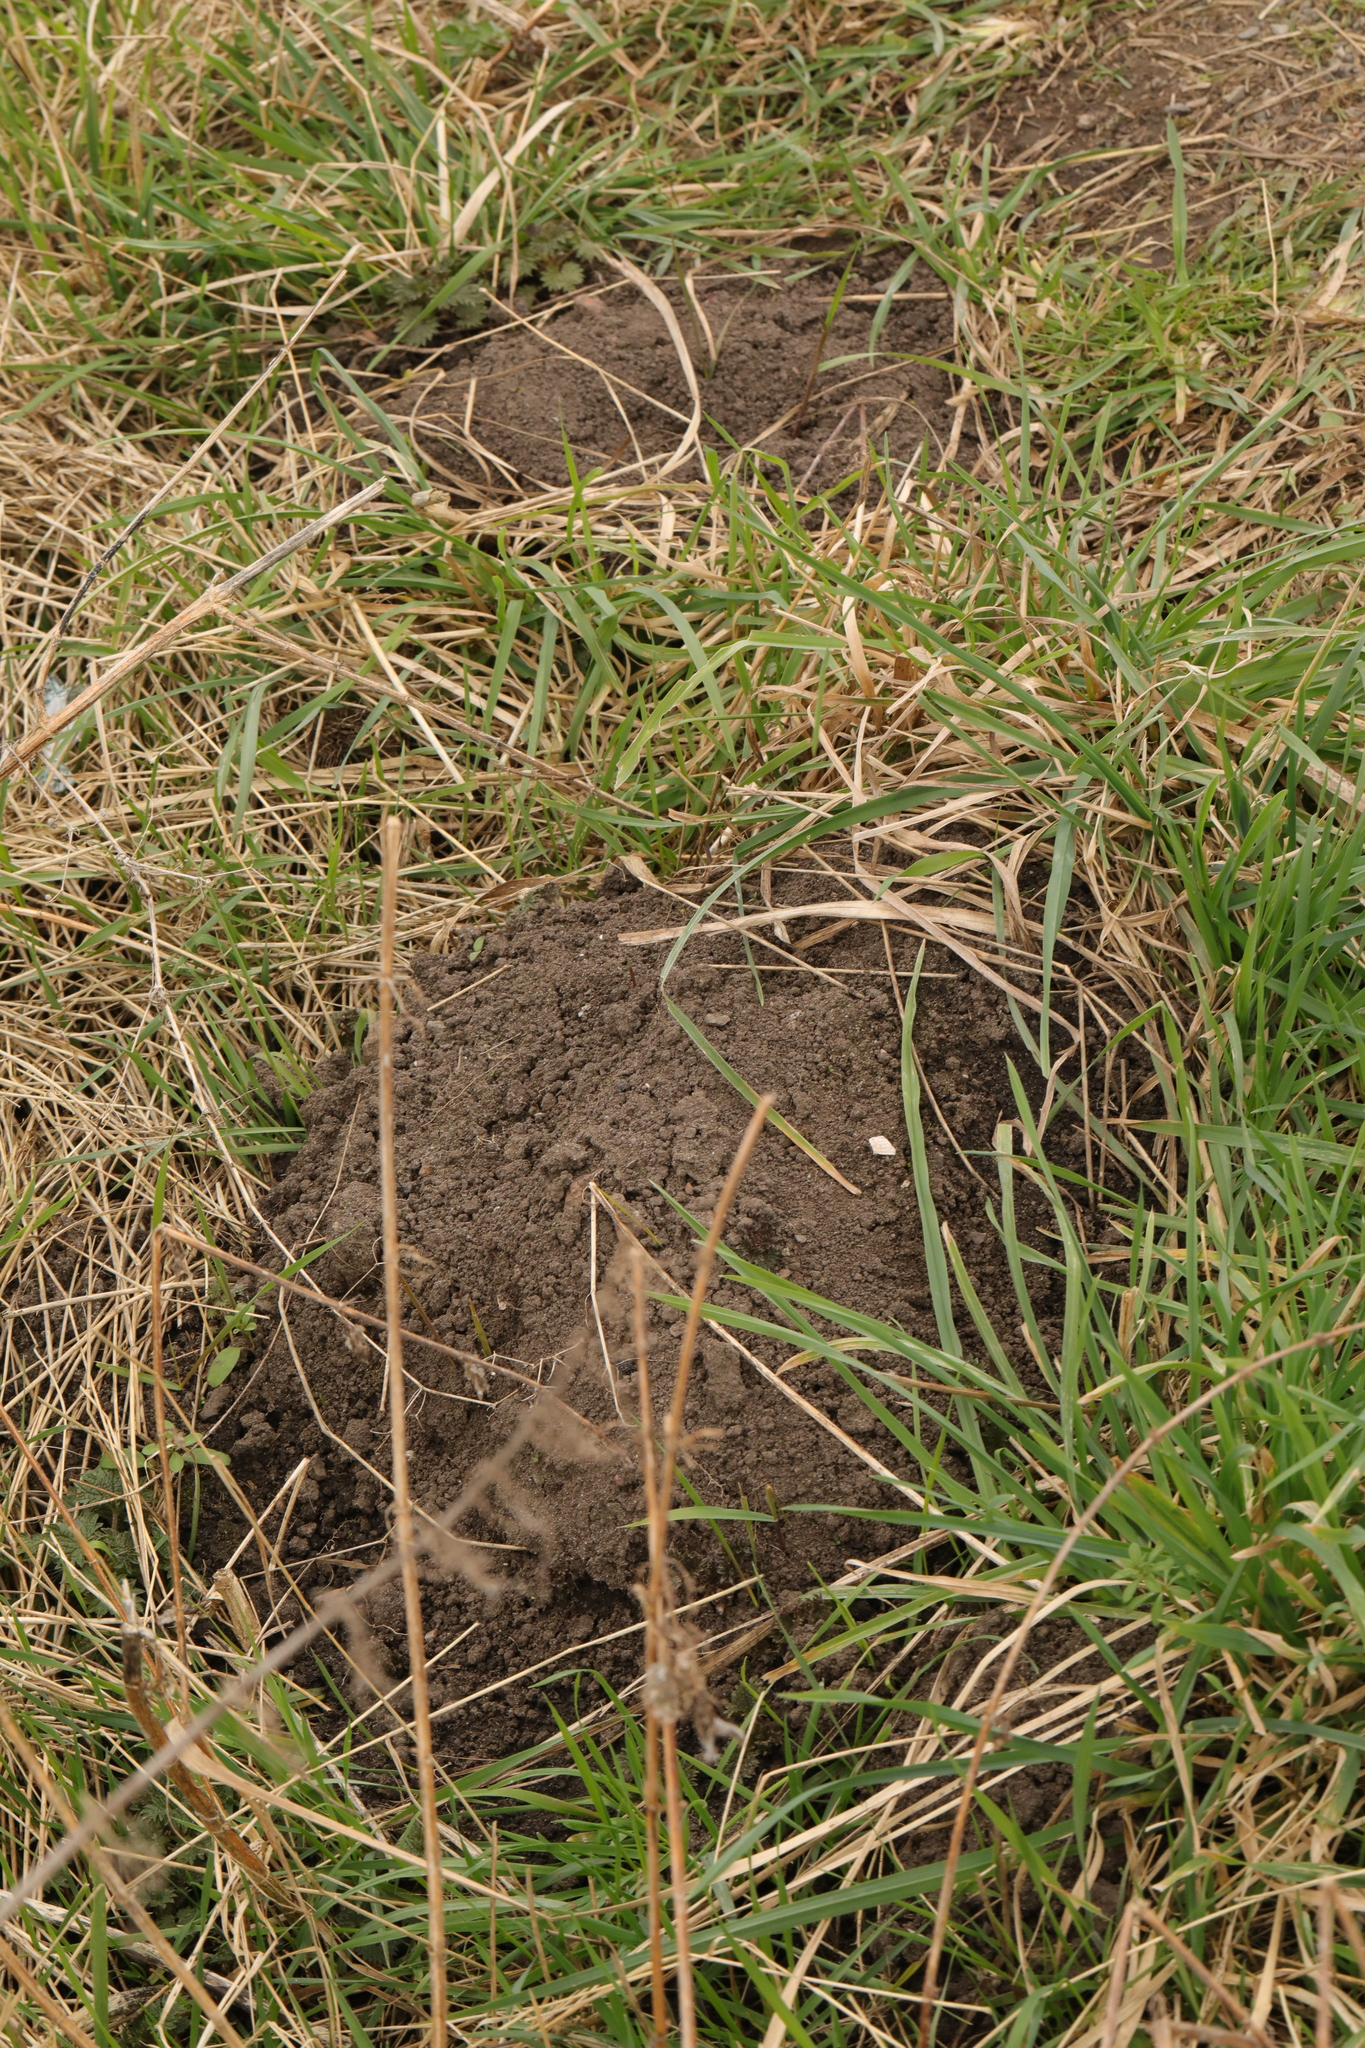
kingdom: Animalia
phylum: Chordata
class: Mammalia
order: Soricomorpha
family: Talpidae
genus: Talpa
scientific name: Talpa europaea
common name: European mole
